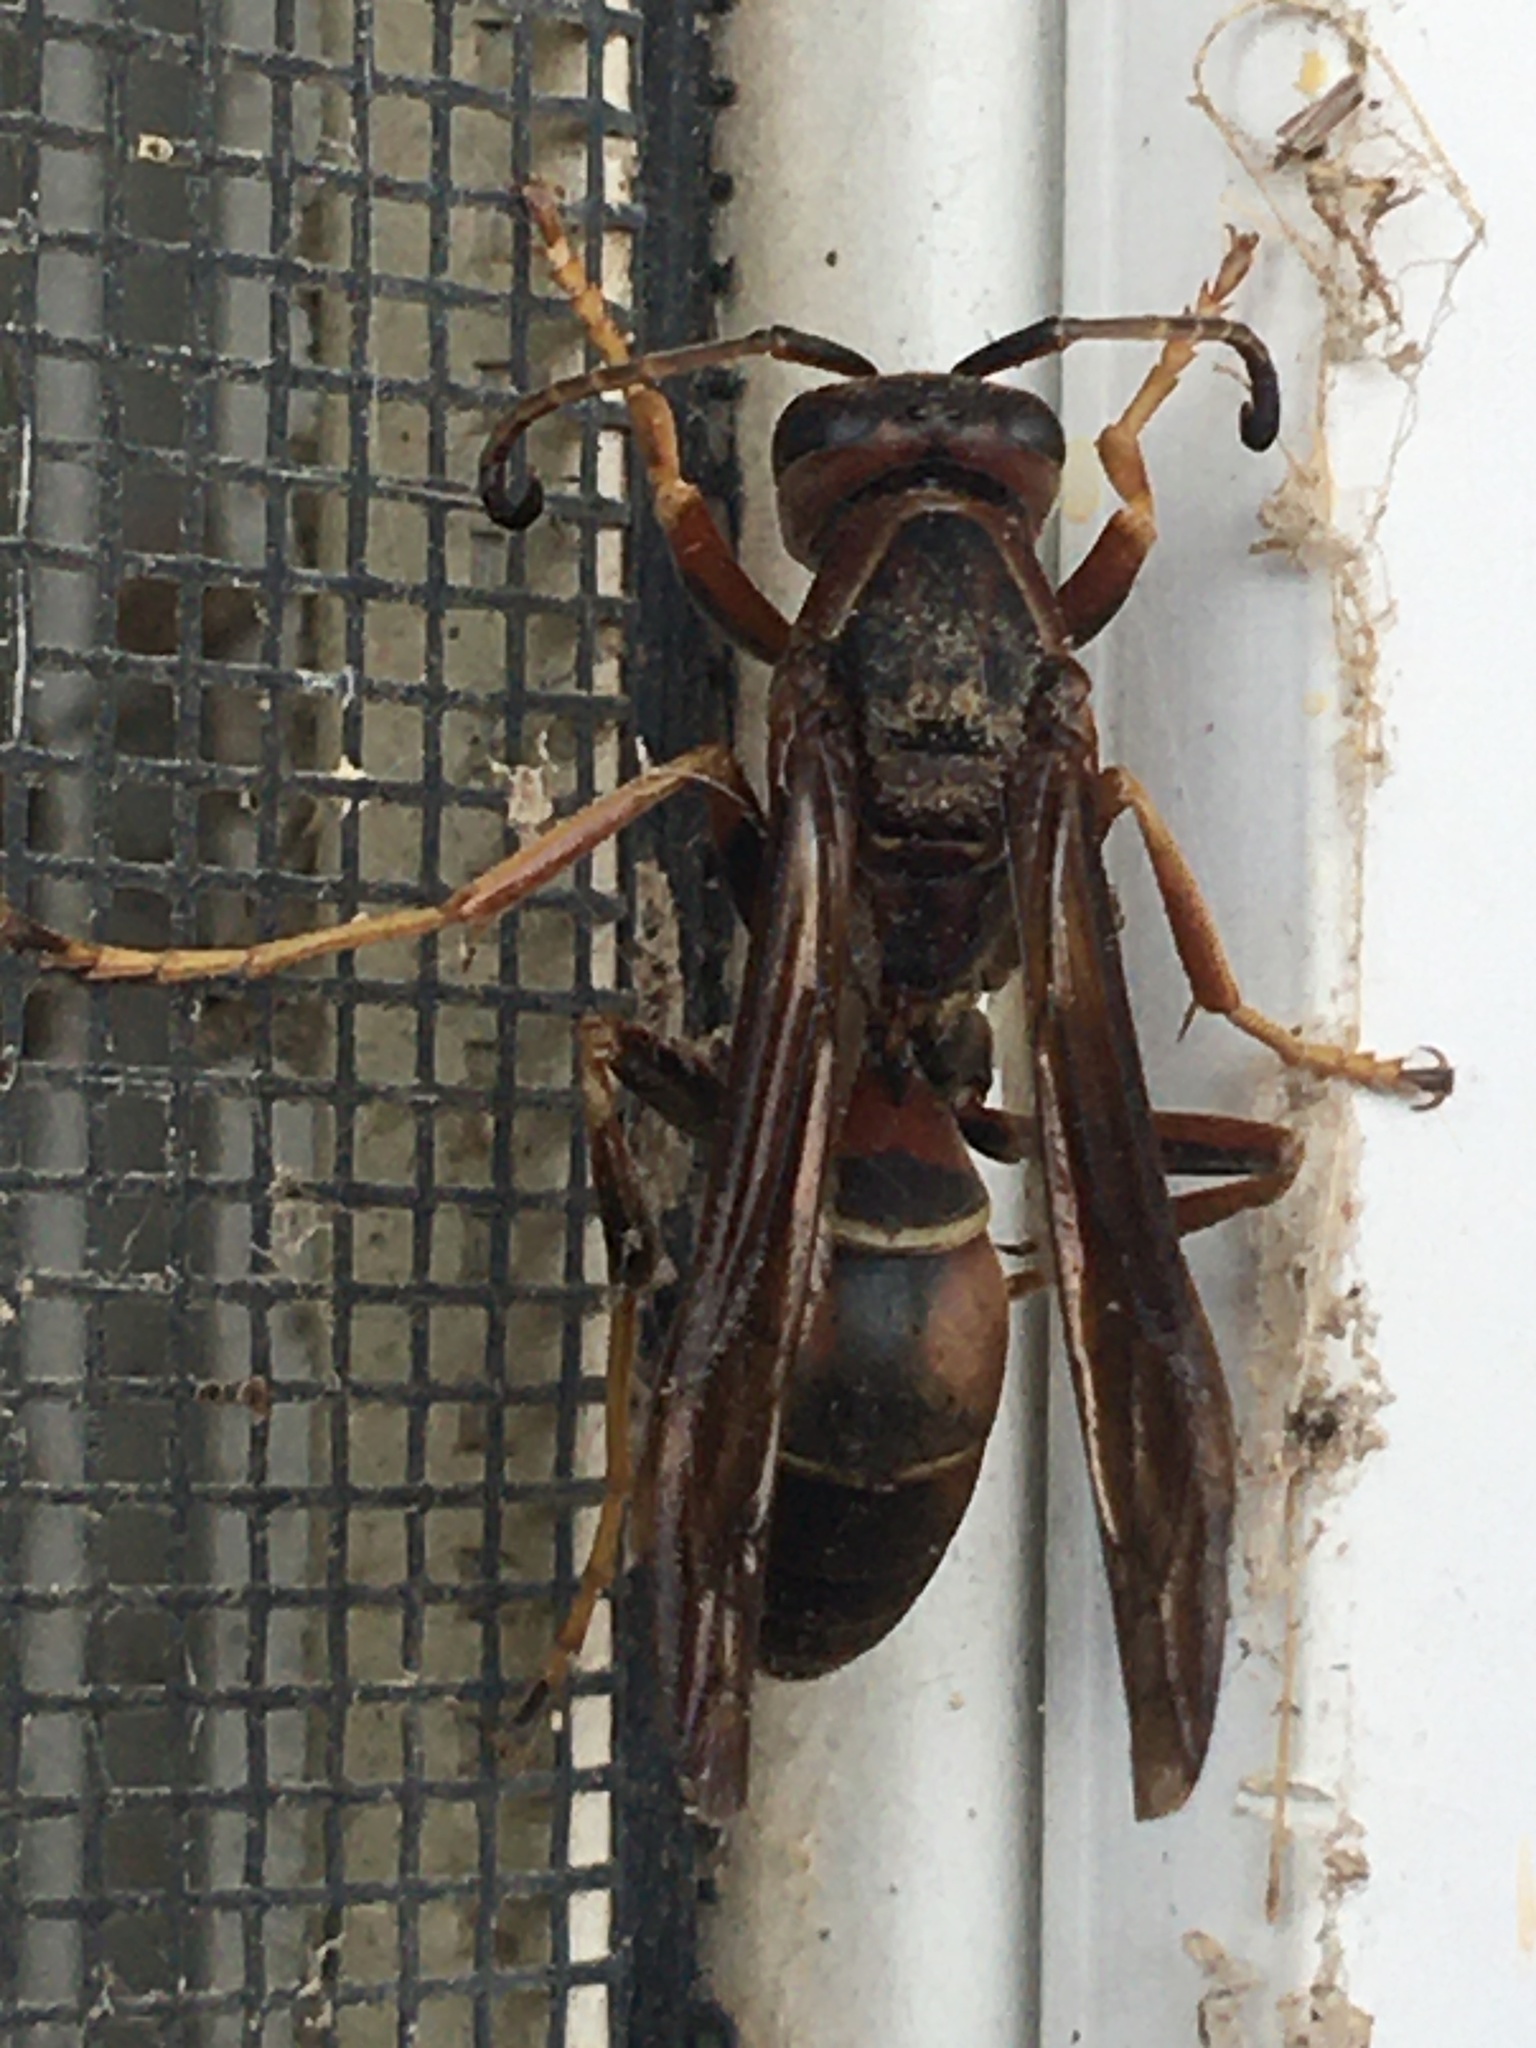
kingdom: Animalia
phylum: Arthropoda
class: Insecta
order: Hymenoptera
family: Eumenidae
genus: Polistes
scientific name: Polistes fuscatus
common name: Dark paper wasp
